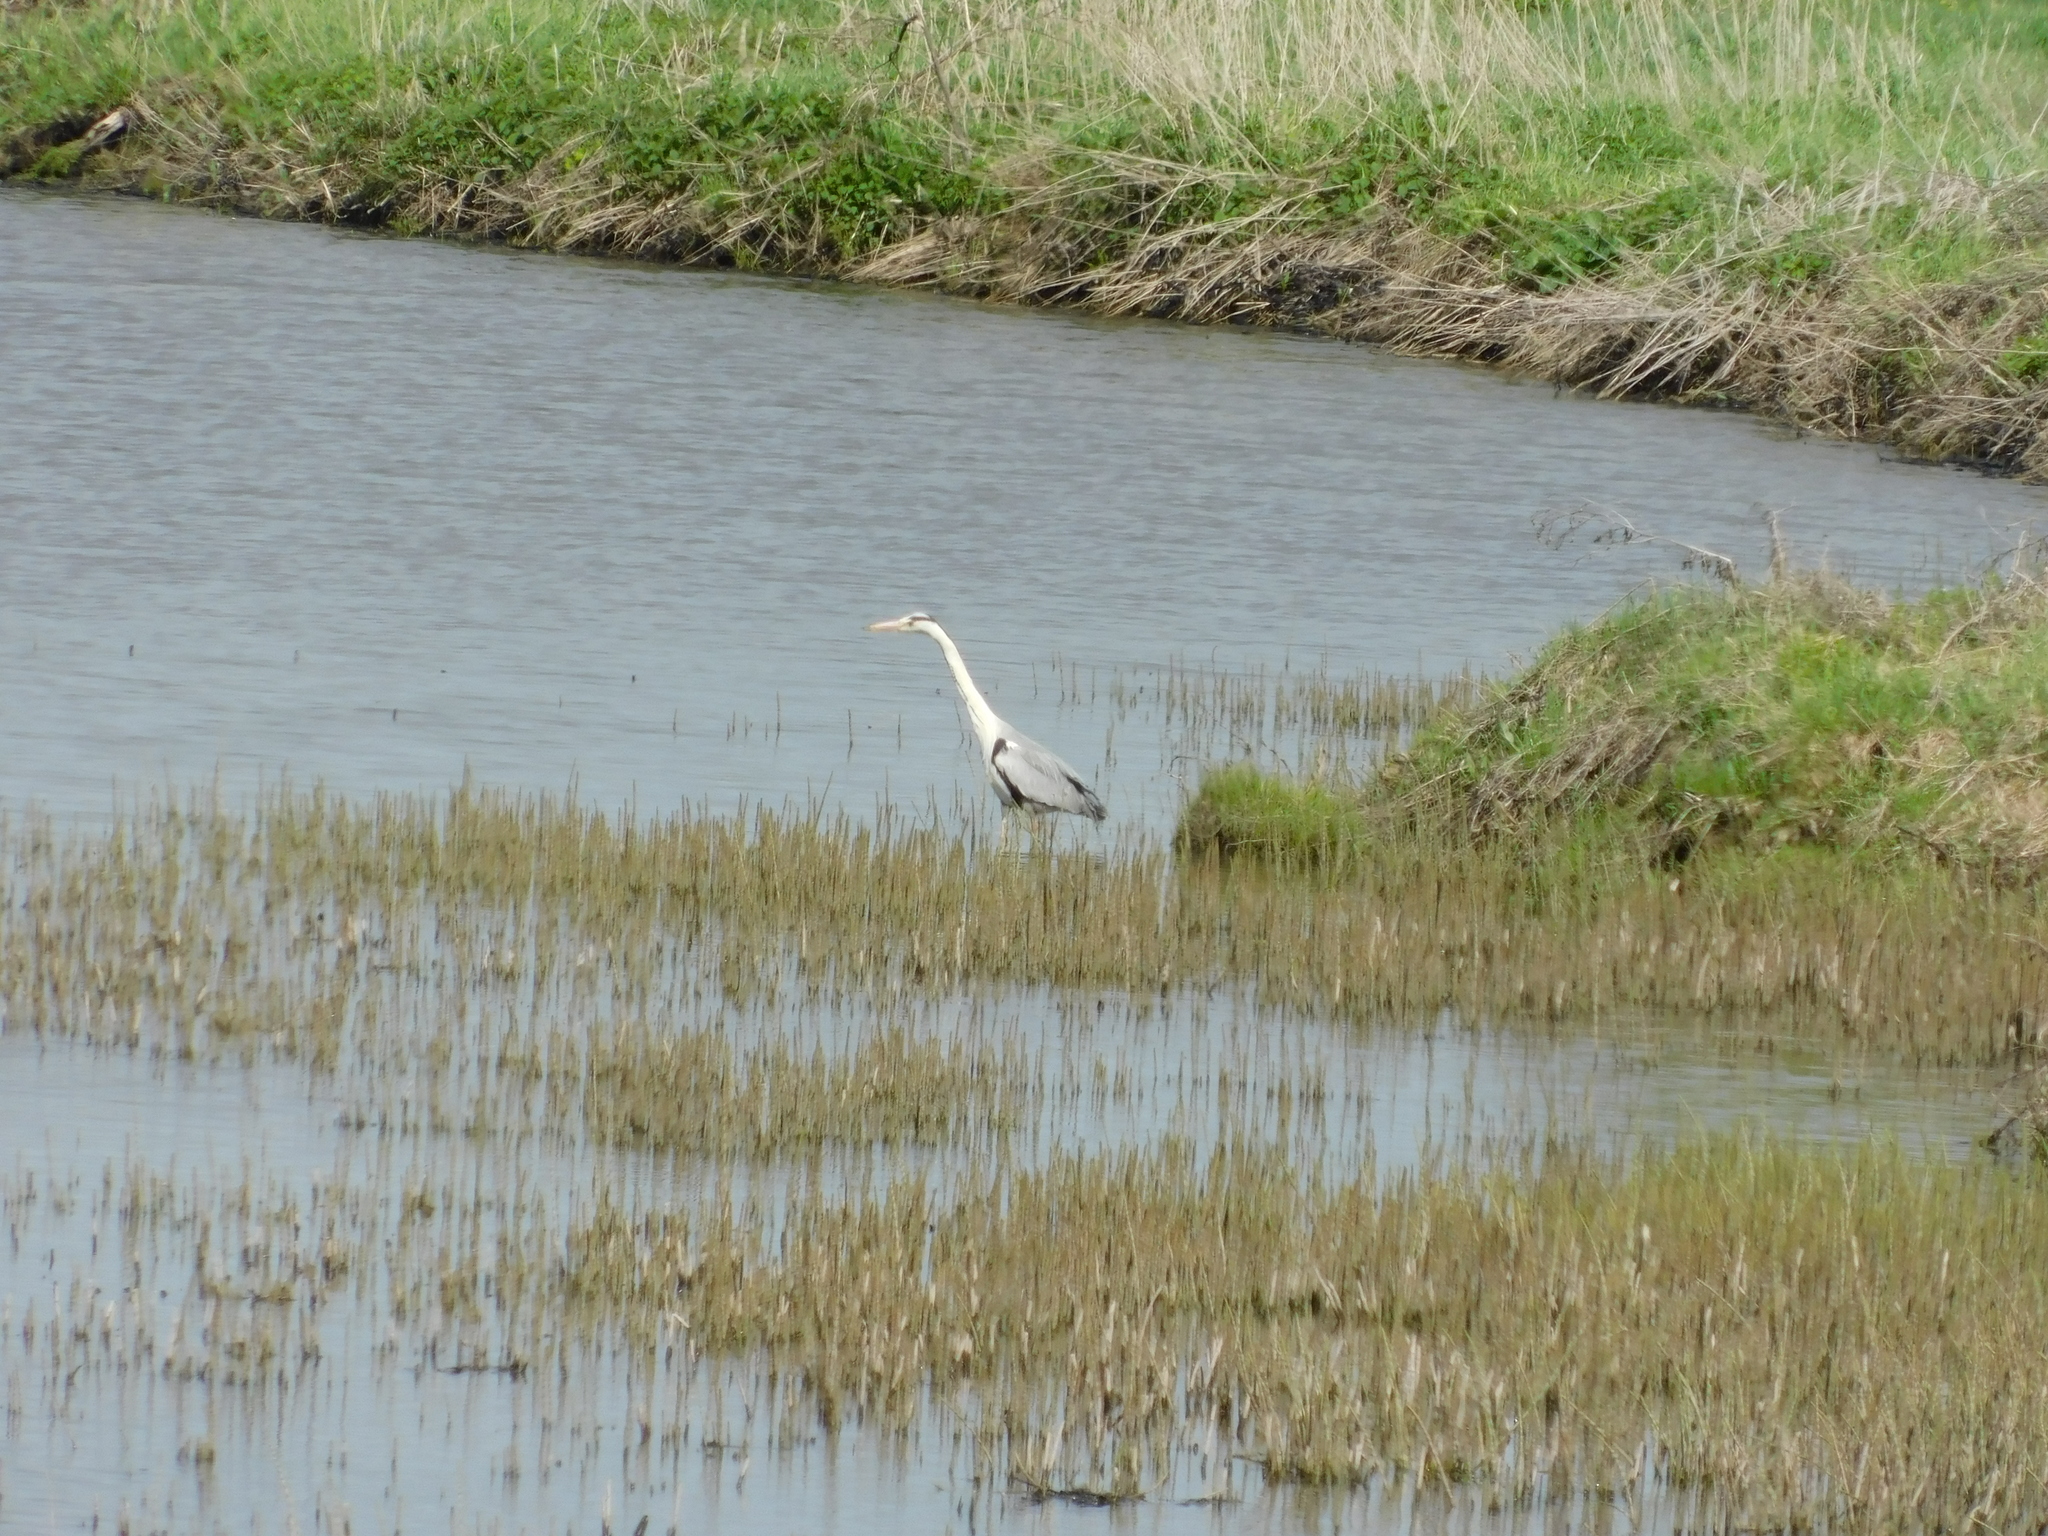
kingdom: Animalia
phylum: Chordata
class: Aves
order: Pelecaniformes
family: Ardeidae
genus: Ardea
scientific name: Ardea cinerea
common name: Grey heron
